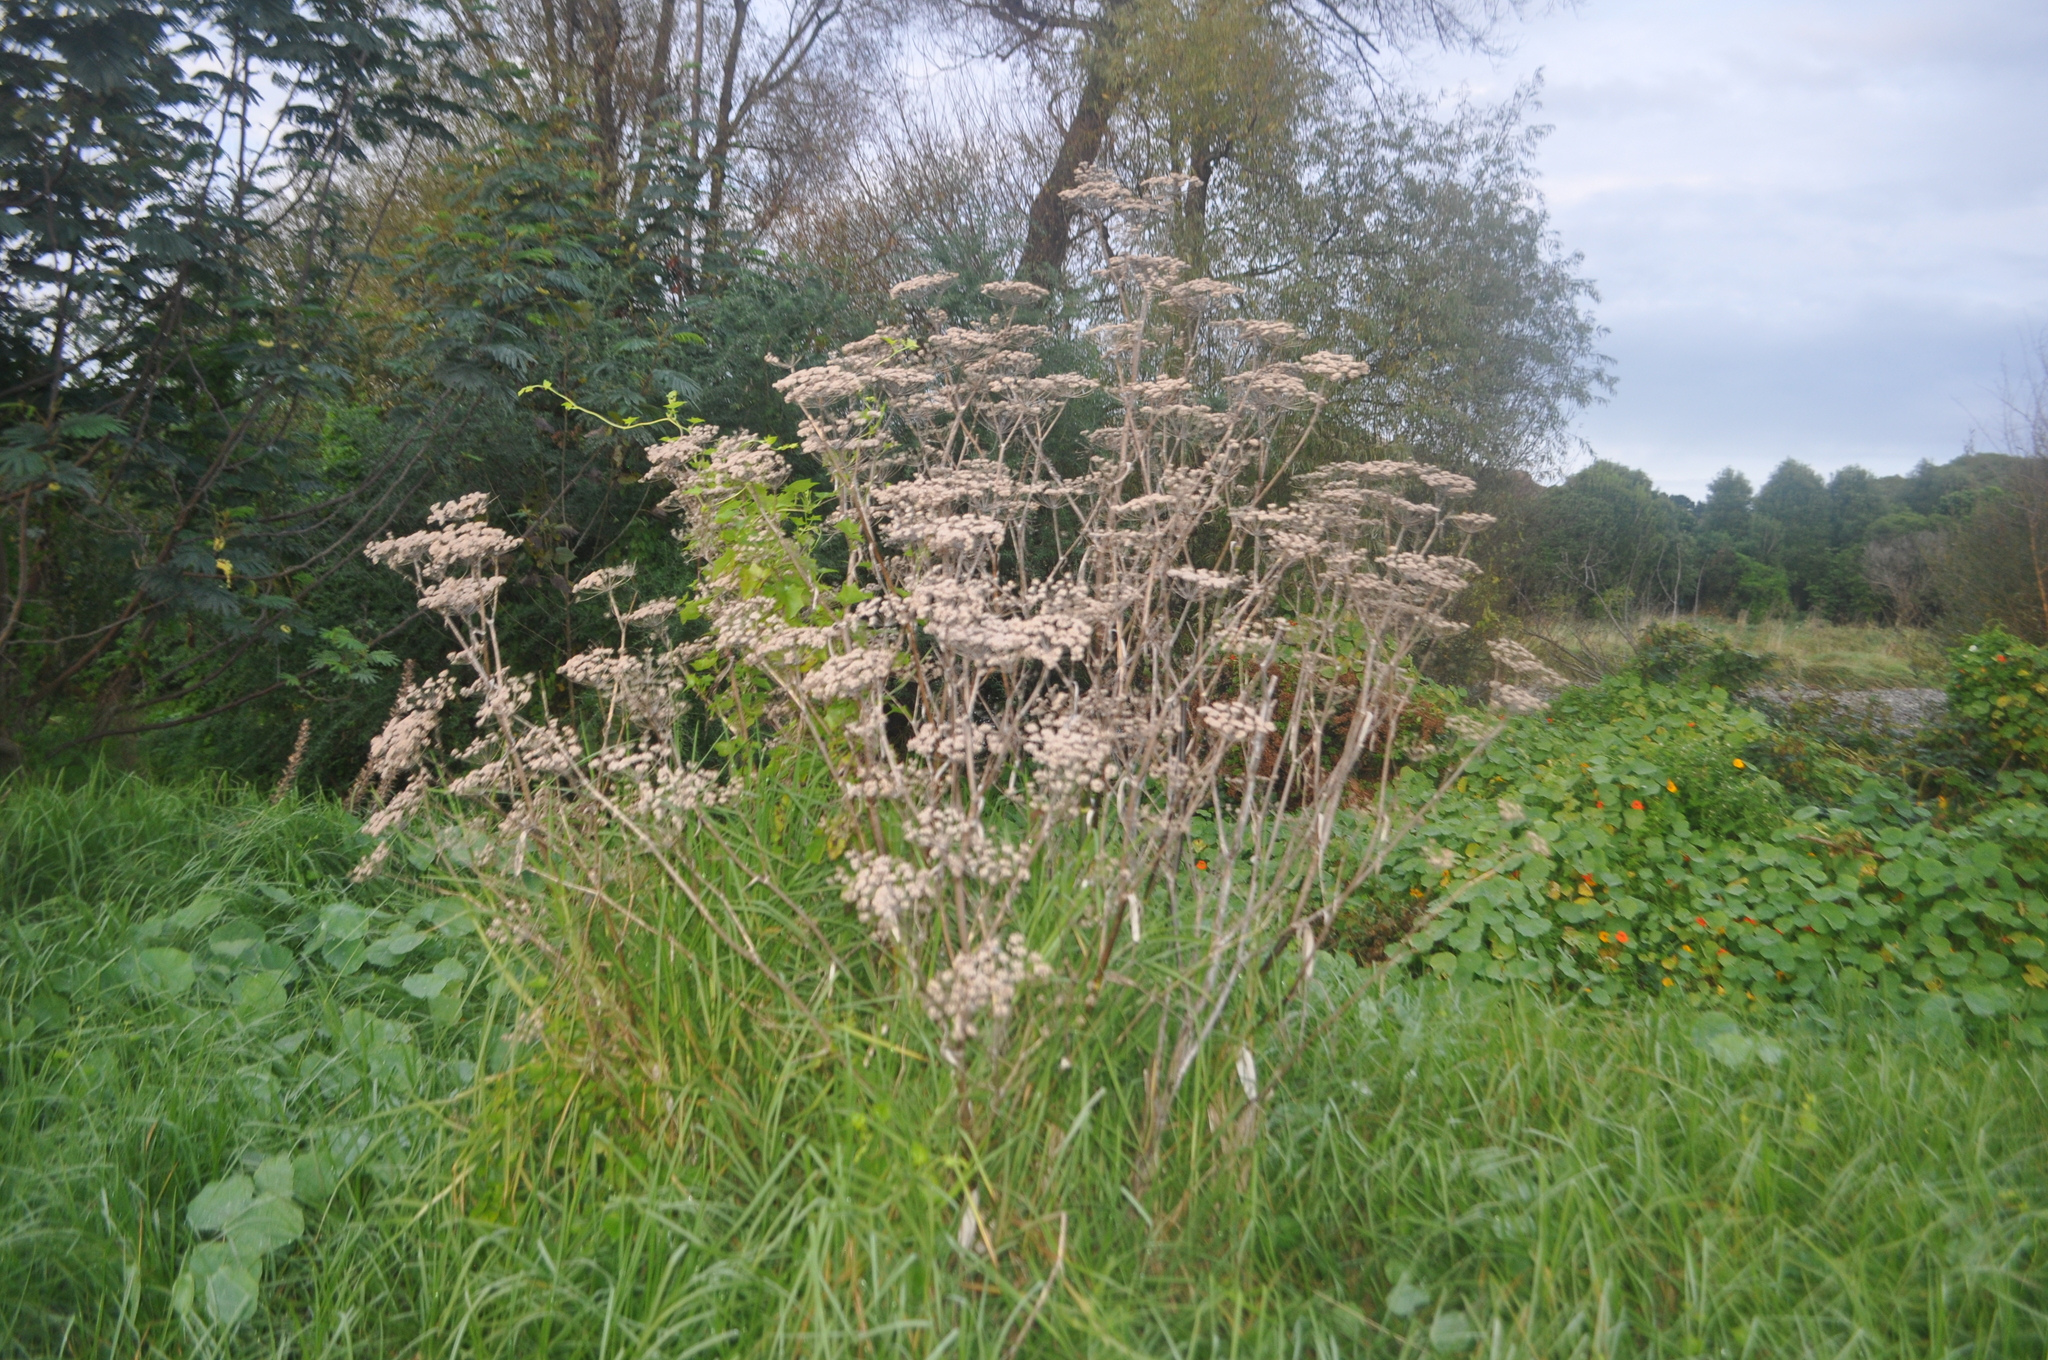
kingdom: Plantae
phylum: Tracheophyta
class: Magnoliopsida
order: Apiales
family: Apiaceae
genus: Foeniculum
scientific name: Foeniculum vulgare
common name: Fennel
